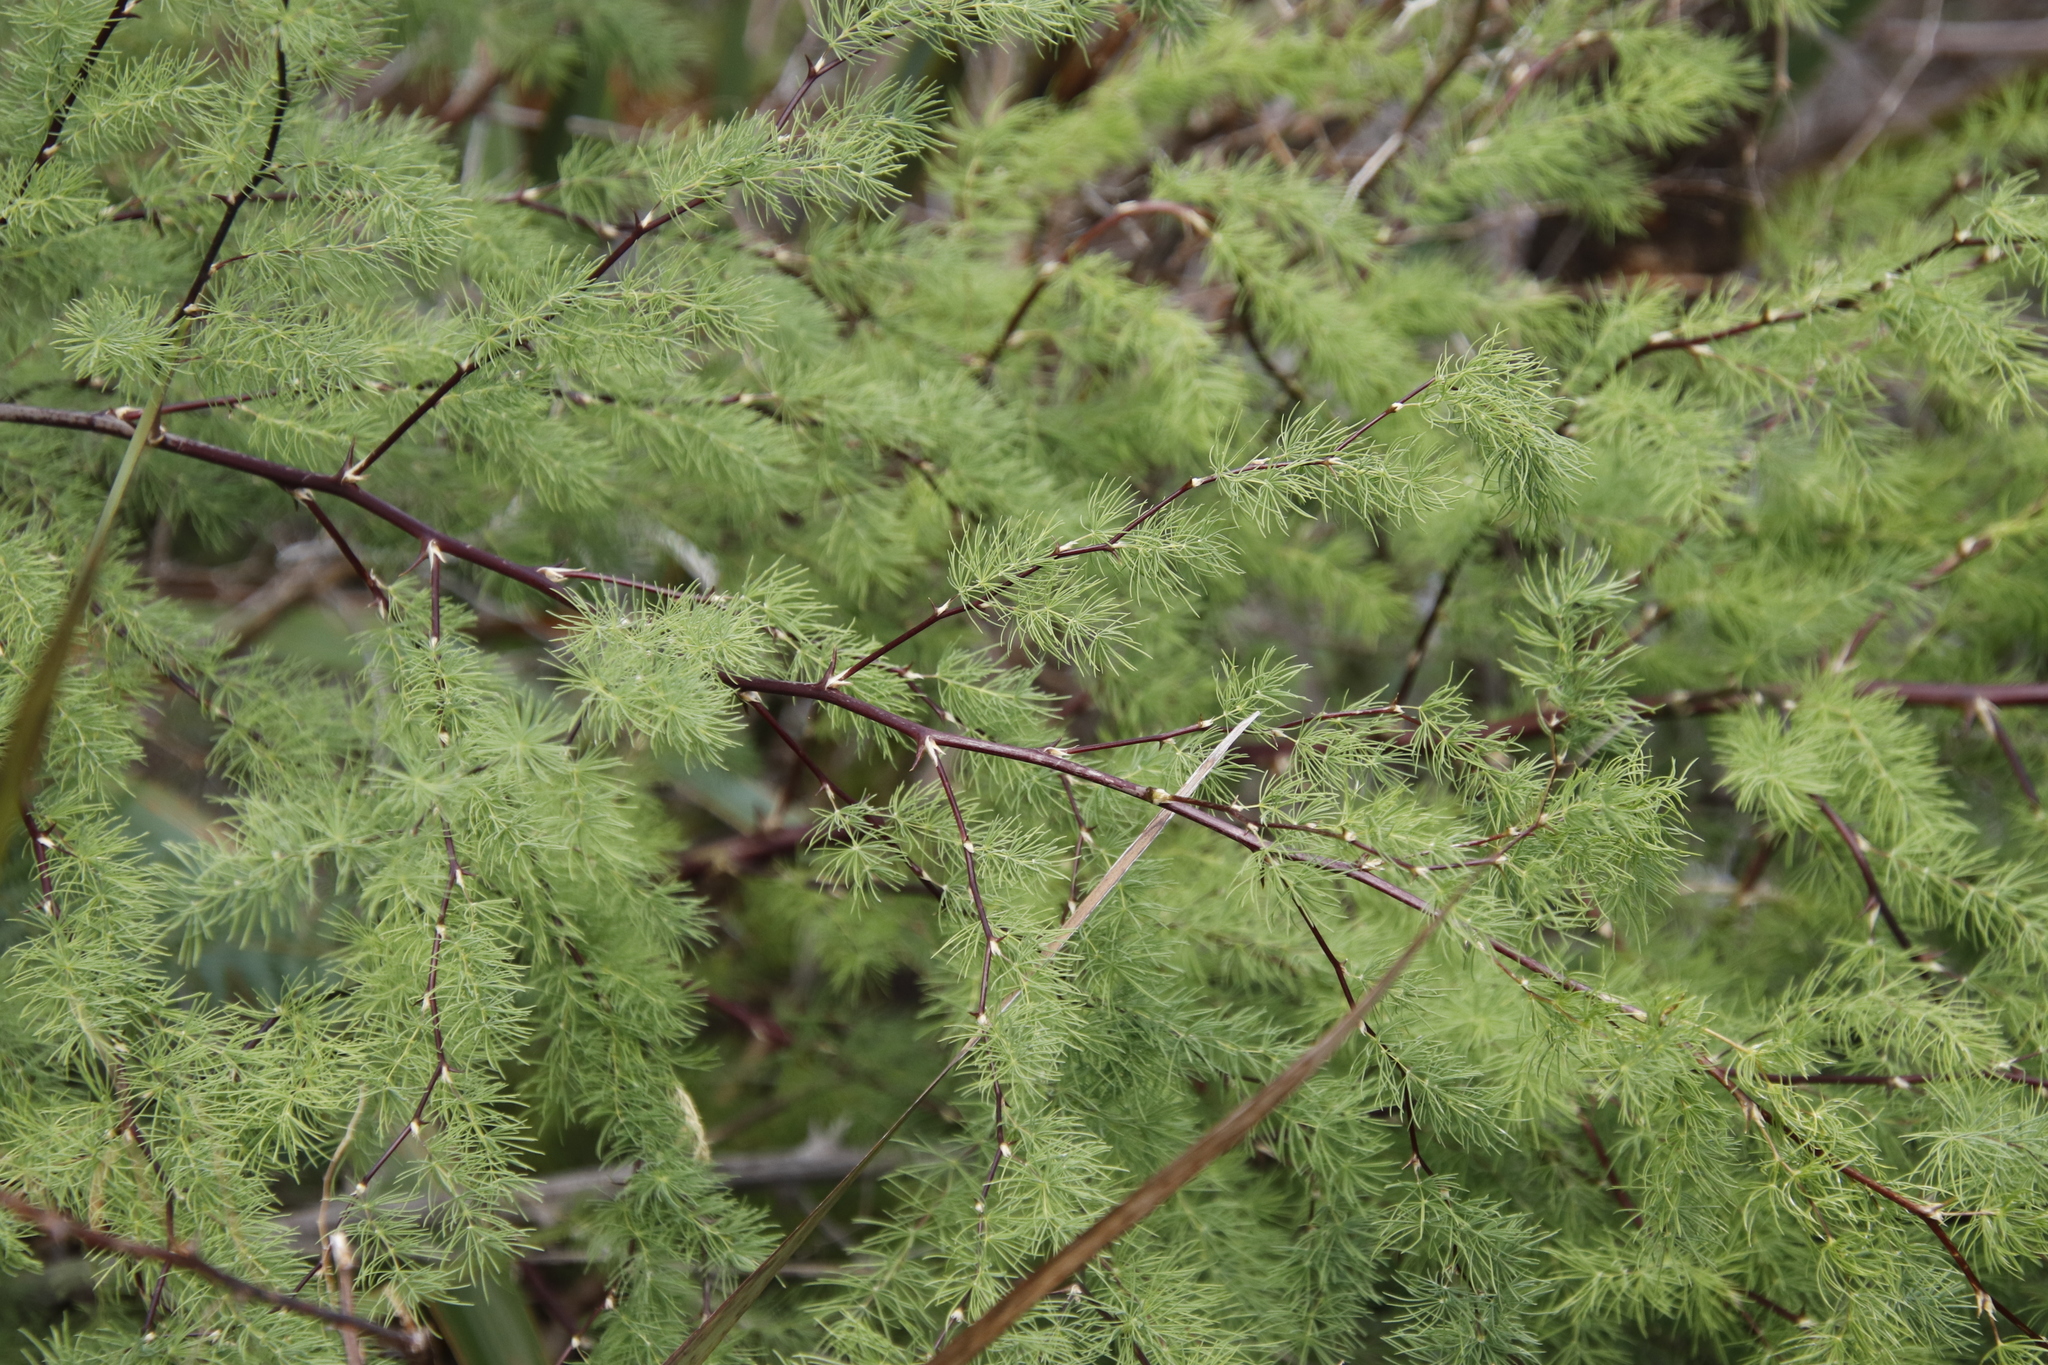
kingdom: Plantae
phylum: Tracheophyta
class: Liliopsida
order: Asparagales
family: Asparagaceae
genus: Asparagus
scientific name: Asparagus rubicundus
